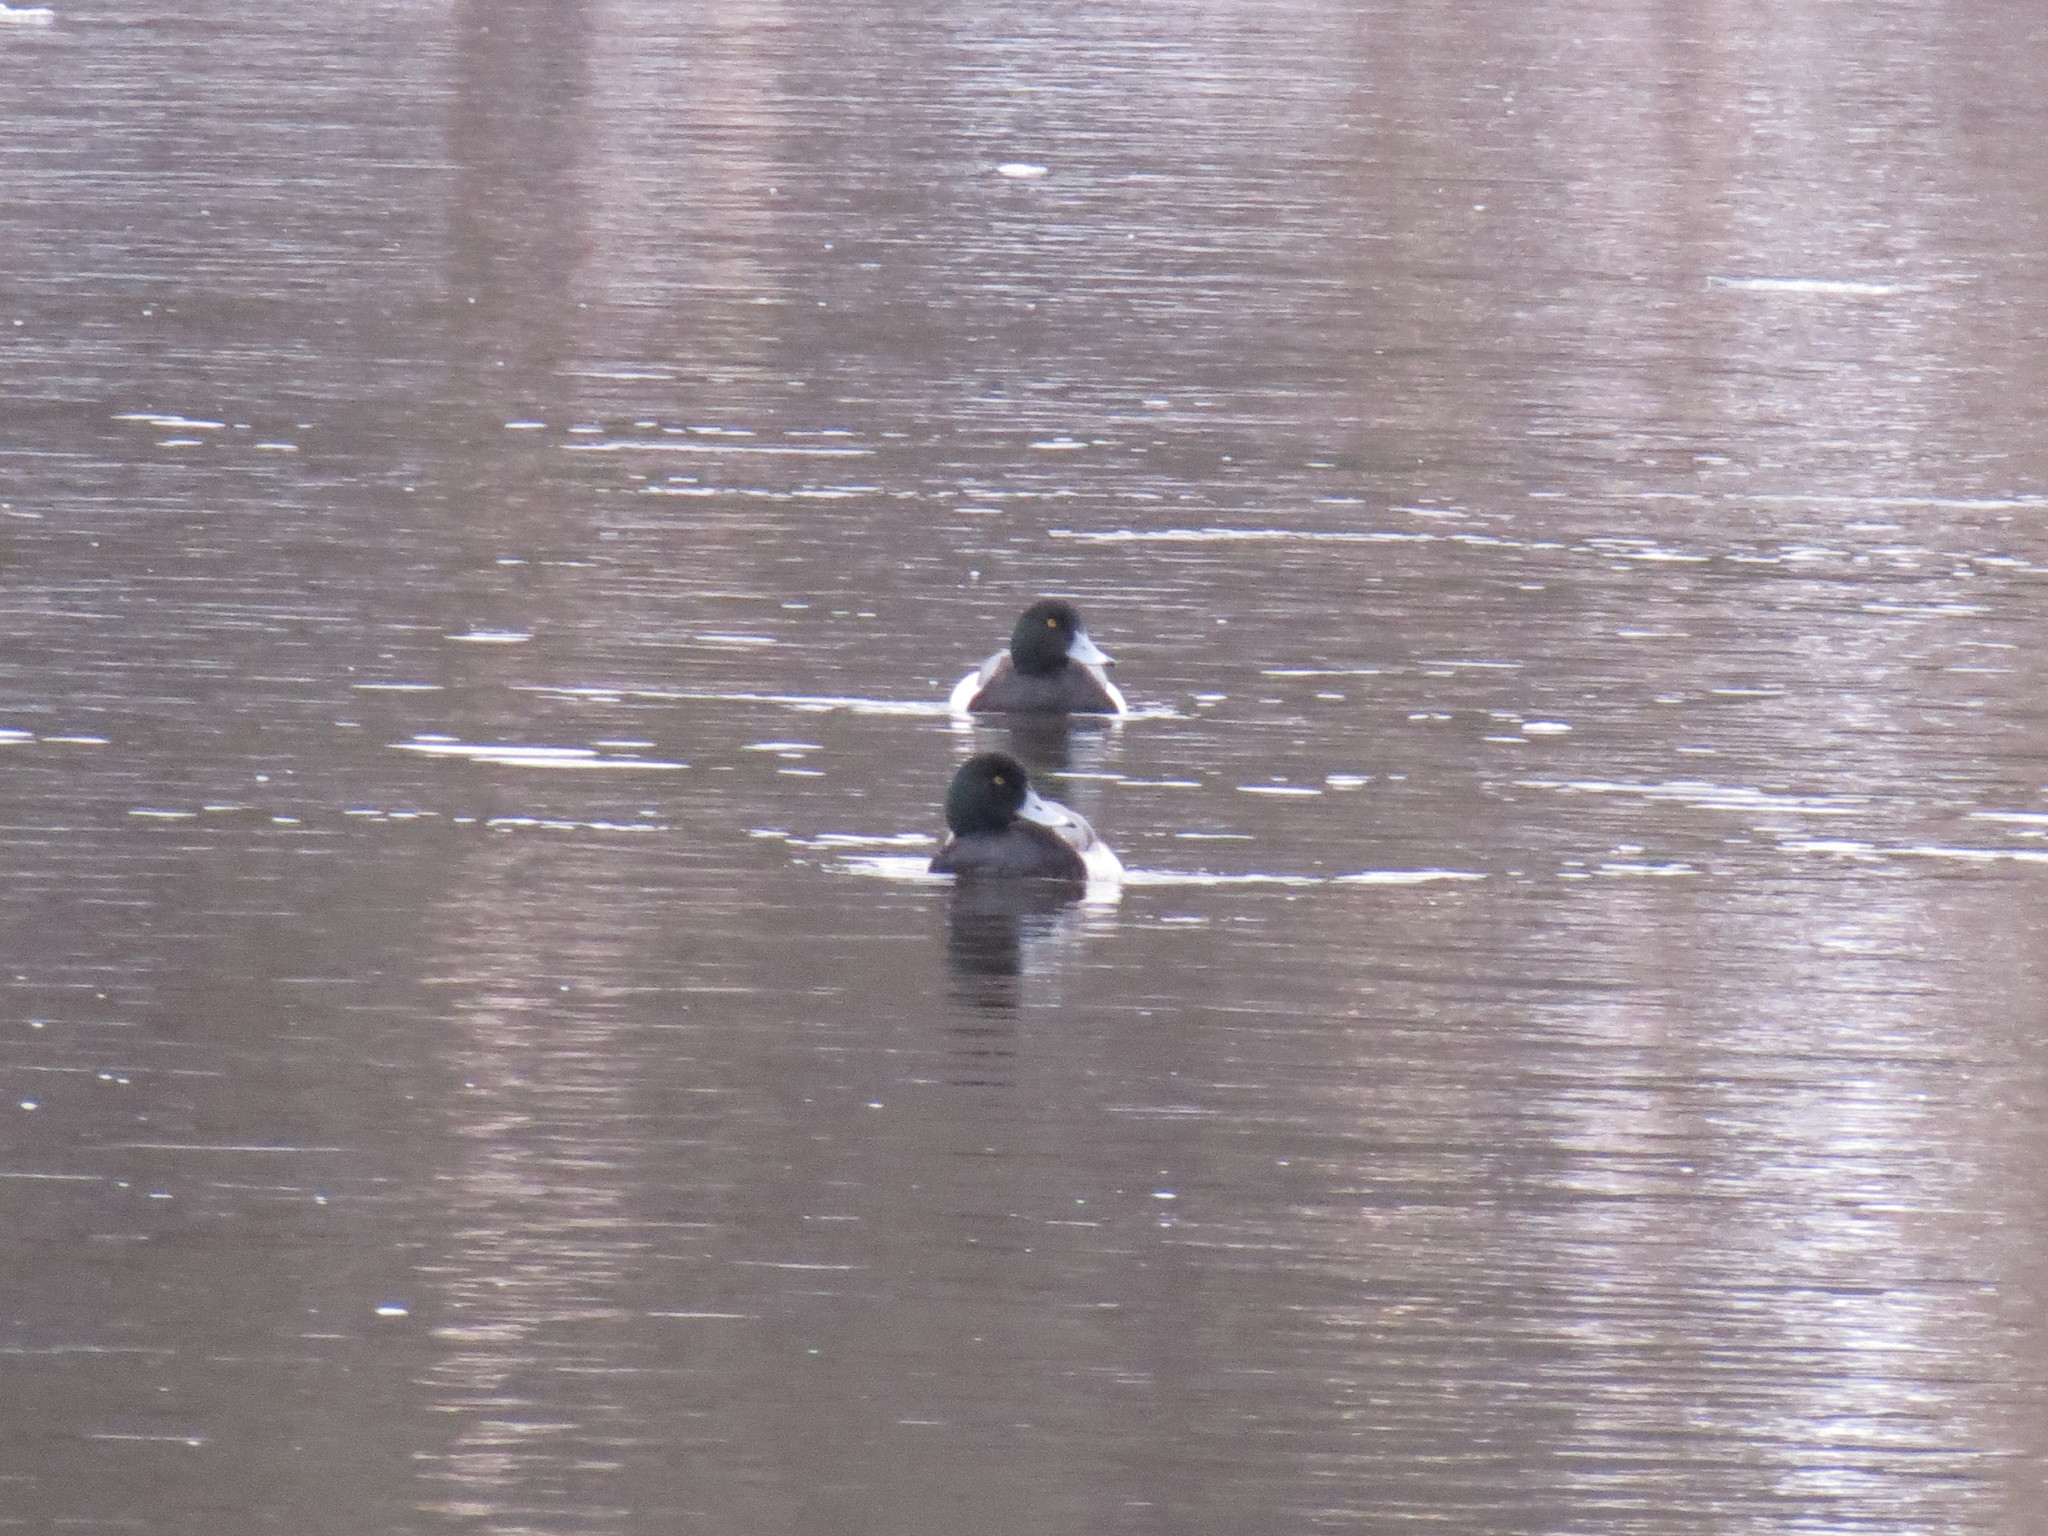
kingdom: Animalia
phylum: Chordata
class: Aves
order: Anseriformes
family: Anatidae
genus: Aythya
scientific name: Aythya marila
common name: Greater scaup
